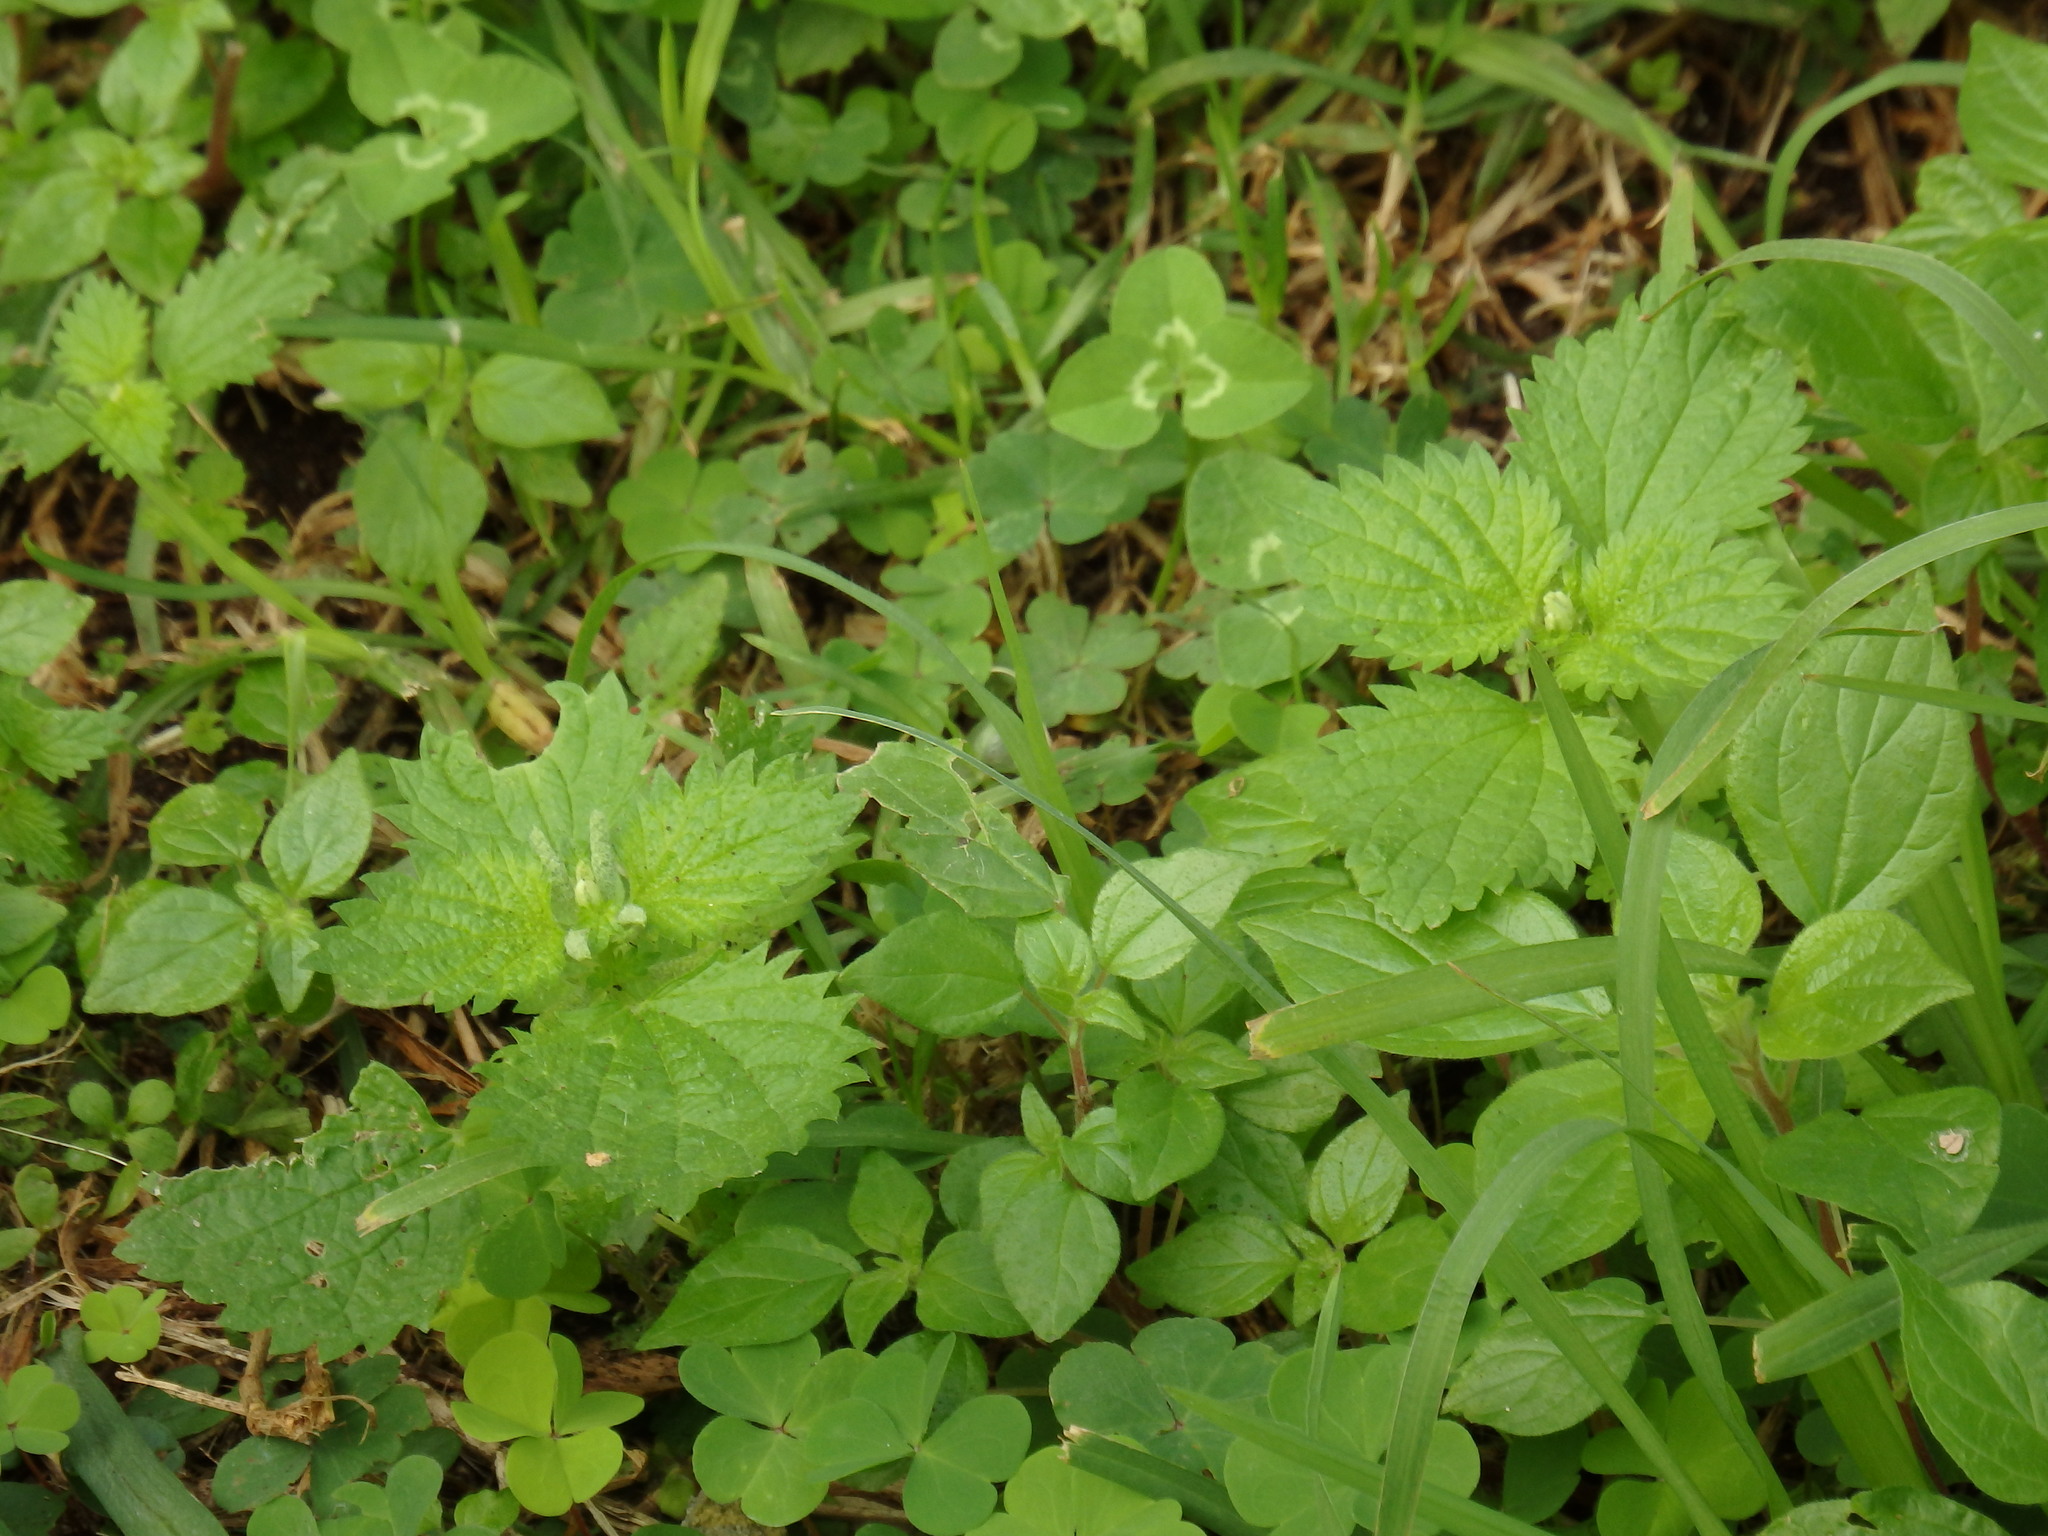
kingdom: Plantae
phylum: Tracheophyta
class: Magnoliopsida
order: Rosales
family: Urticaceae
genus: Urtica
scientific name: Urtica membranacea
